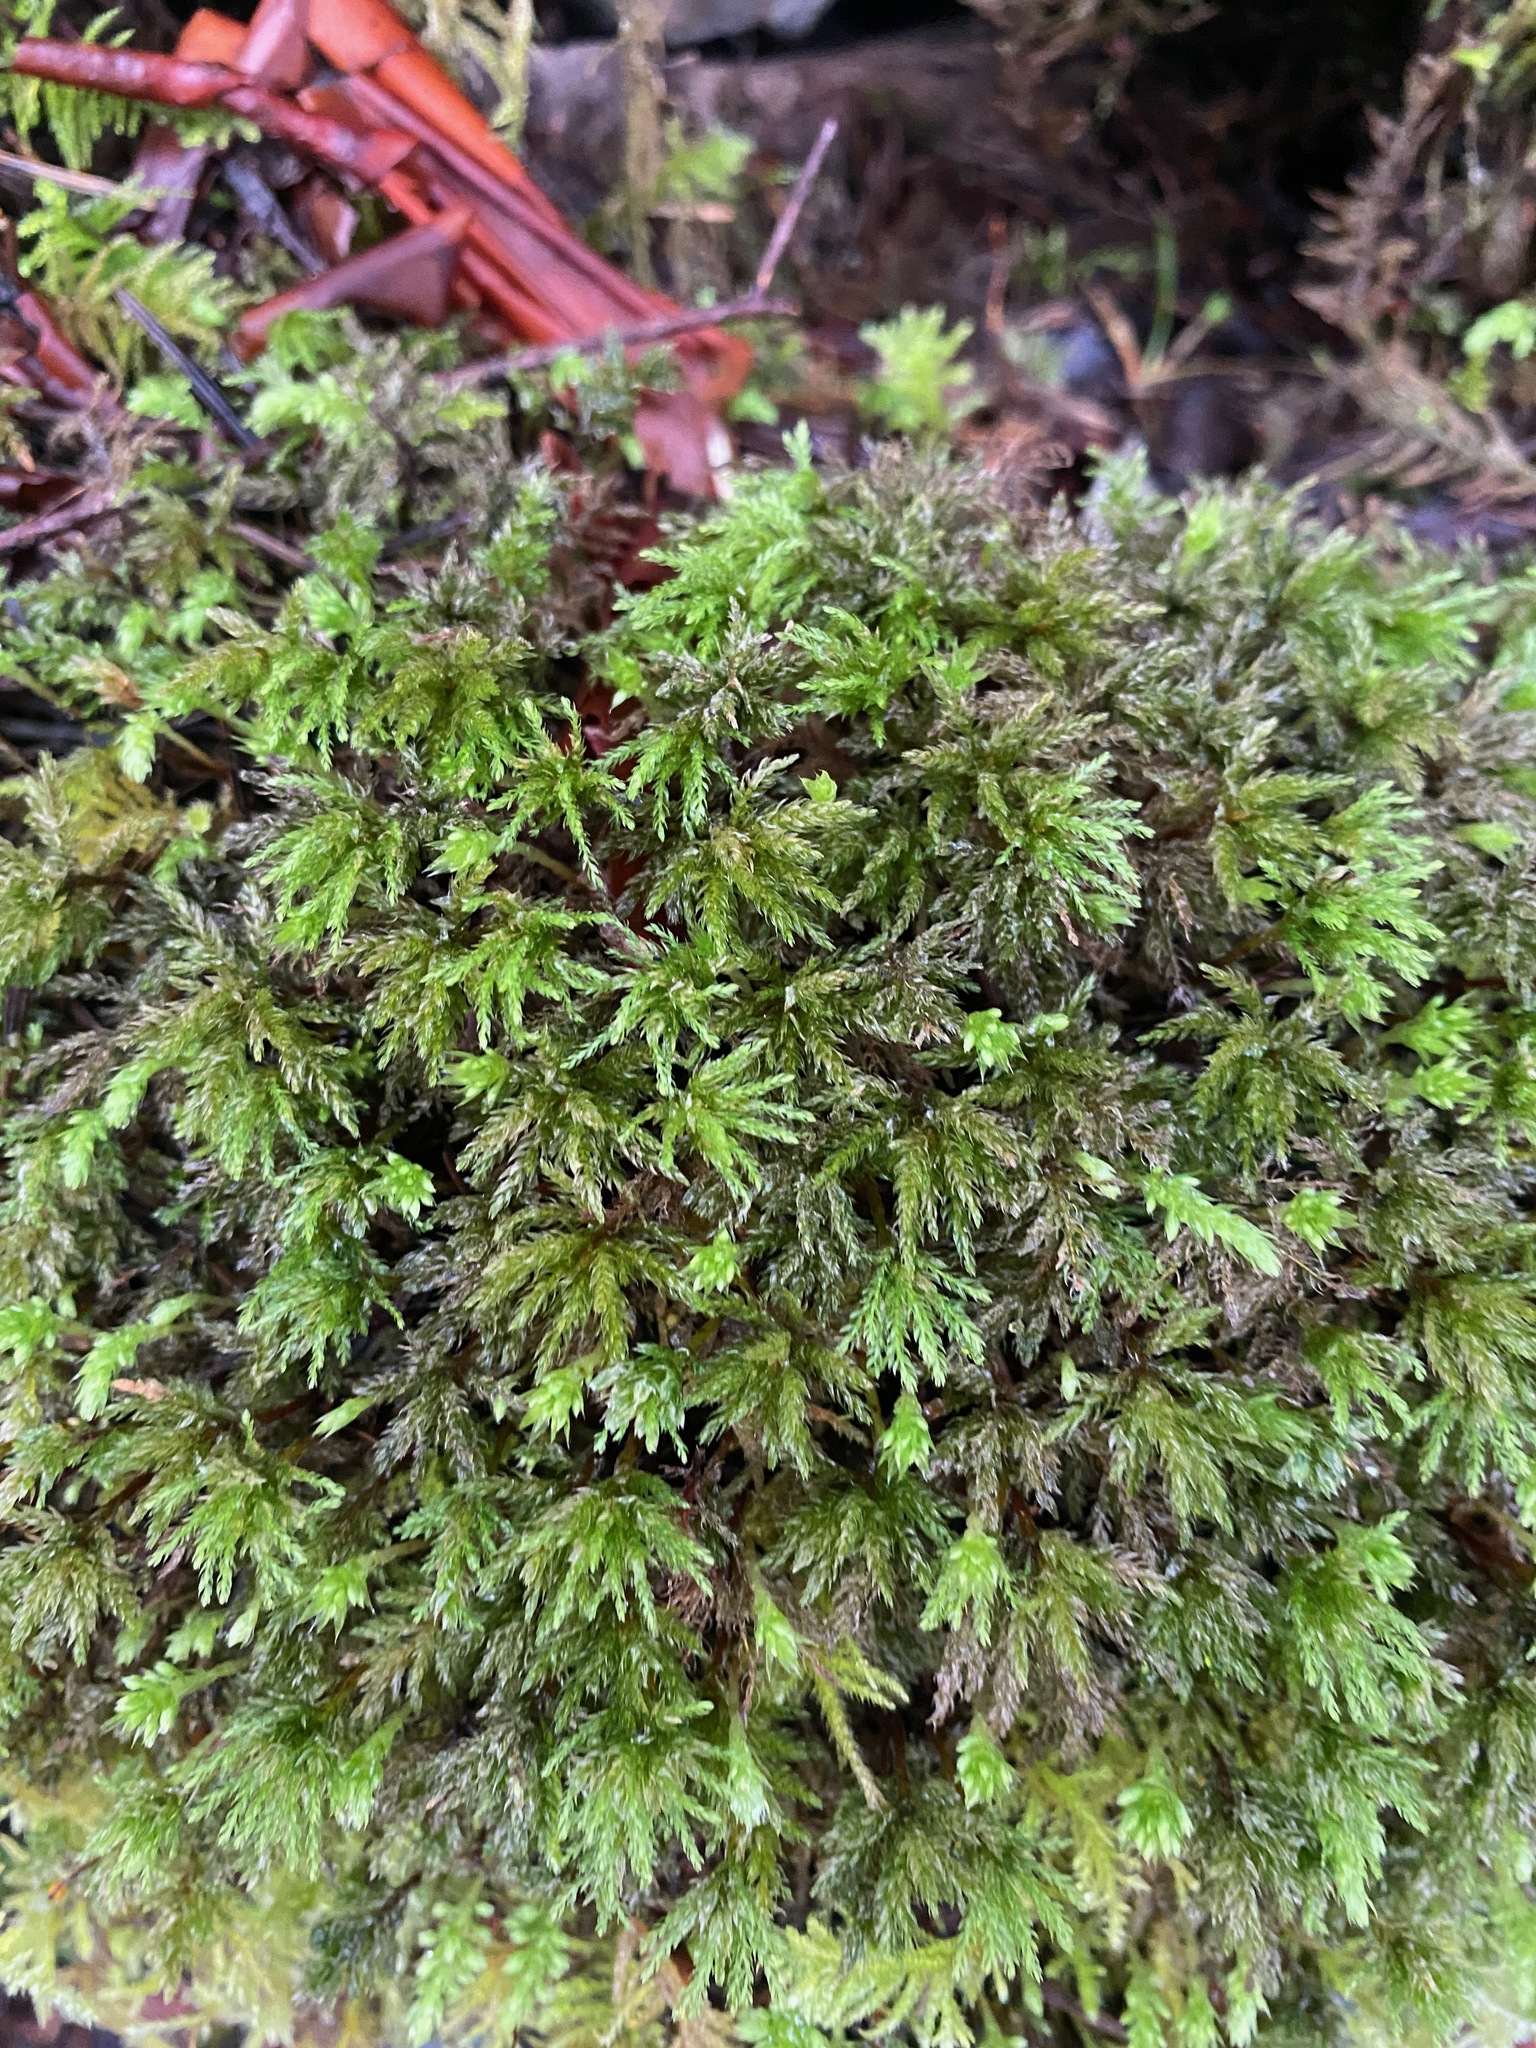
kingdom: Plantae
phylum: Bryophyta
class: Bryopsida
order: Bryales
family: Mniaceae
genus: Leucolepis
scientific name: Leucolepis acanthoneura
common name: Leucolepis umbrella moss
